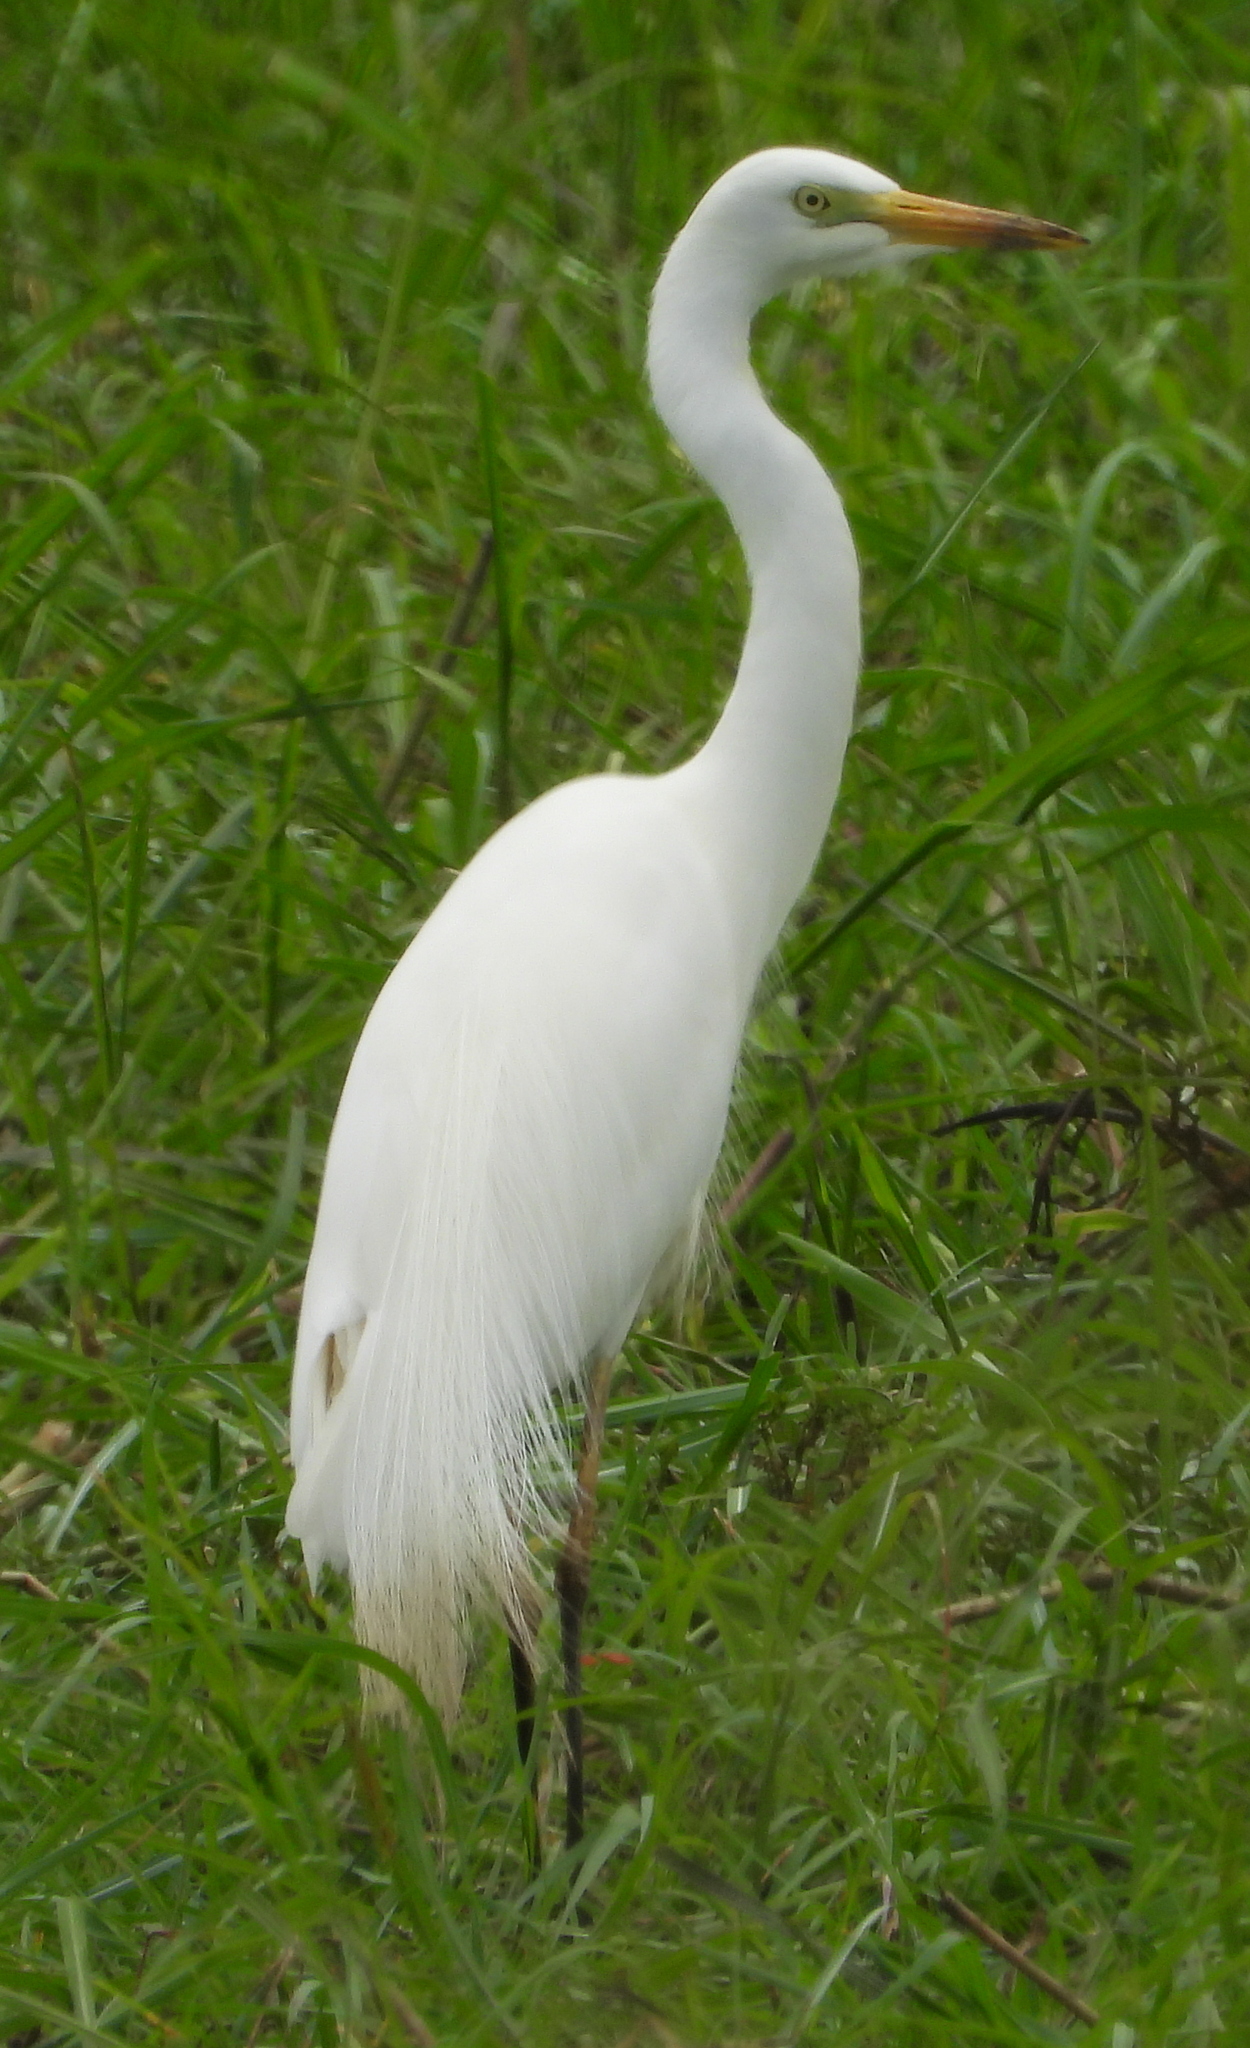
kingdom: Animalia
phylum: Chordata
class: Aves
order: Pelecaniformes
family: Ardeidae
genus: Egretta
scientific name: Egretta intermedia
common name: Intermediate egret
